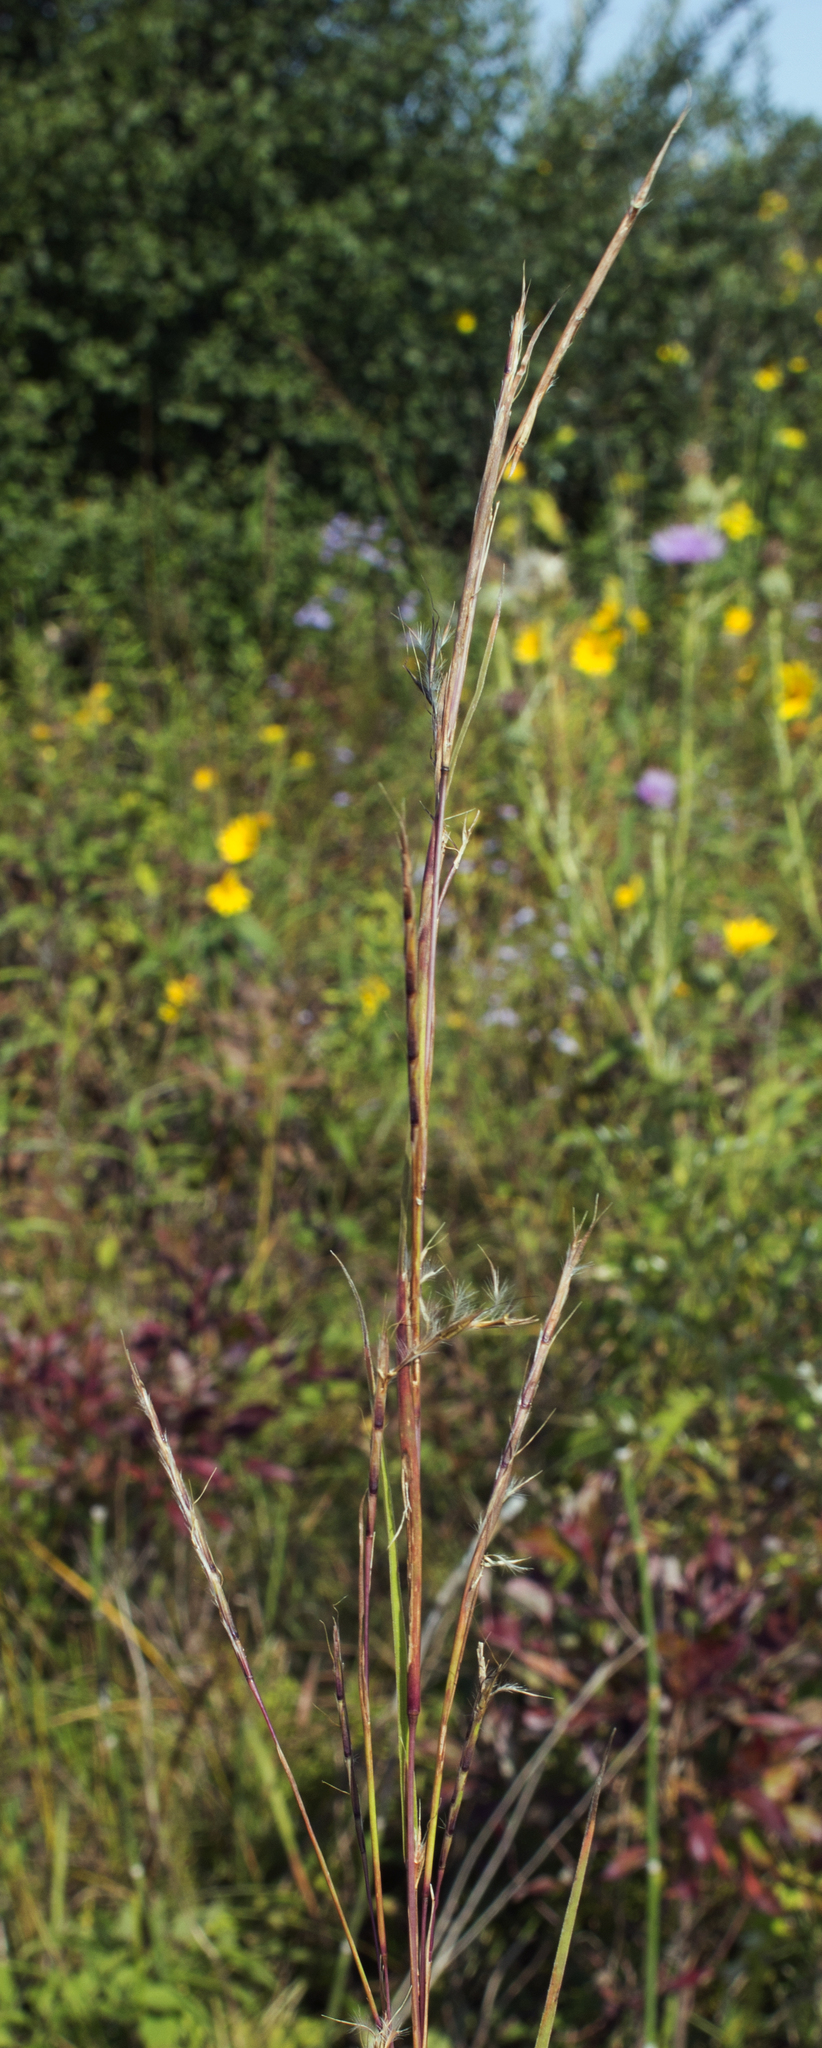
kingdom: Plantae
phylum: Tracheophyta
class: Liliopsida
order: Poales
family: Poaceae
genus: Schizachyrium
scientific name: Schizachyrium scoparium
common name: Little bluestem
